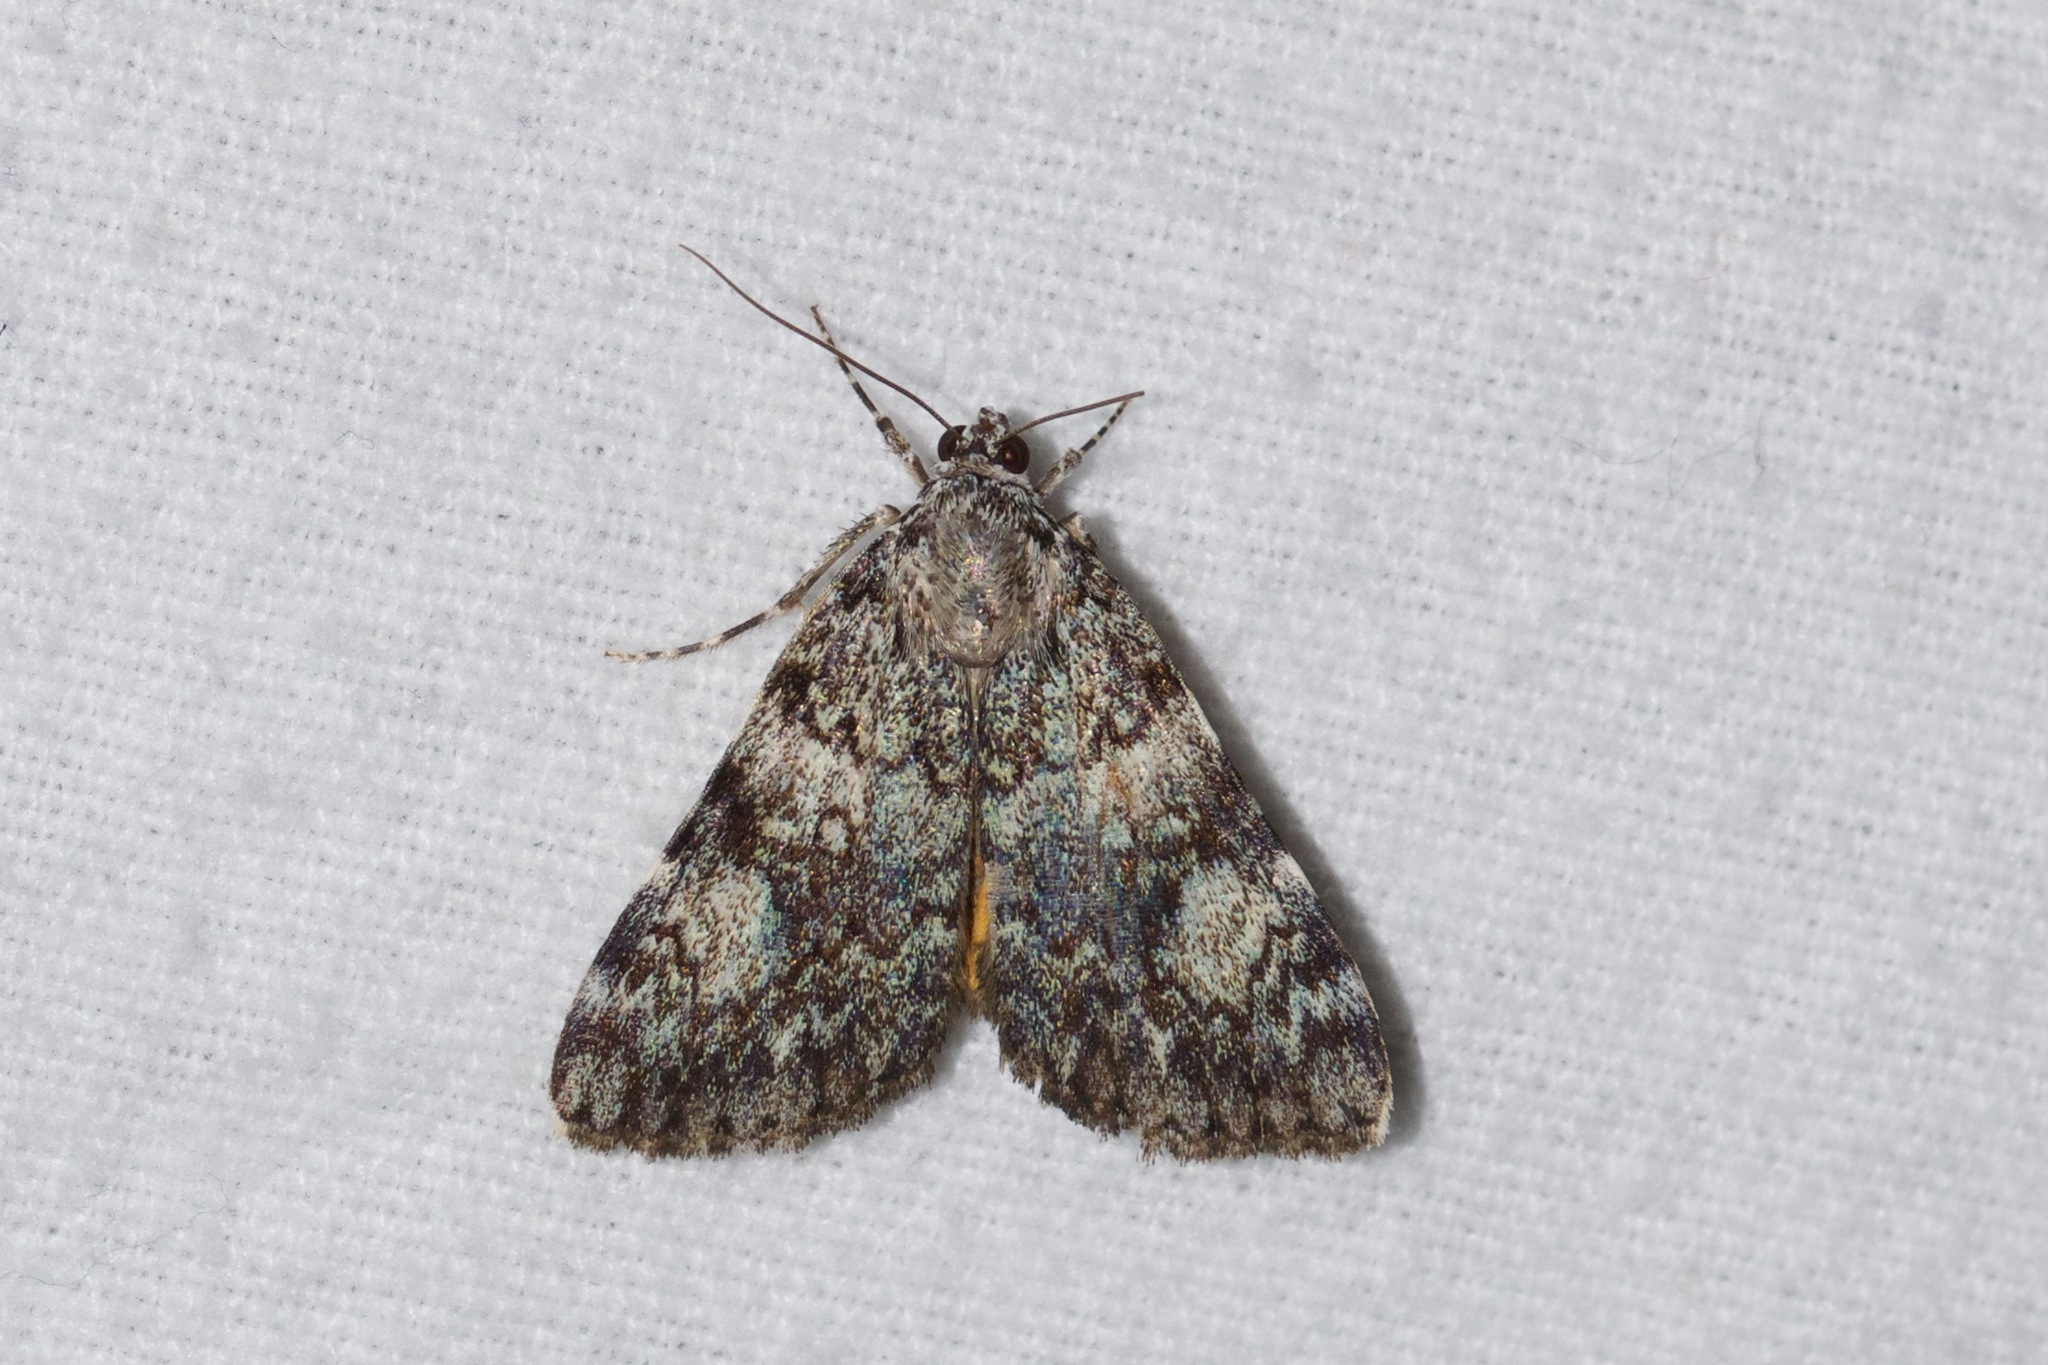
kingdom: Animalia
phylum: Arthropoda
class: Insecta
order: Lepidoptera
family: Erebidae
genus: Catocala
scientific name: Catocala lineella
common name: Little lined underwing
